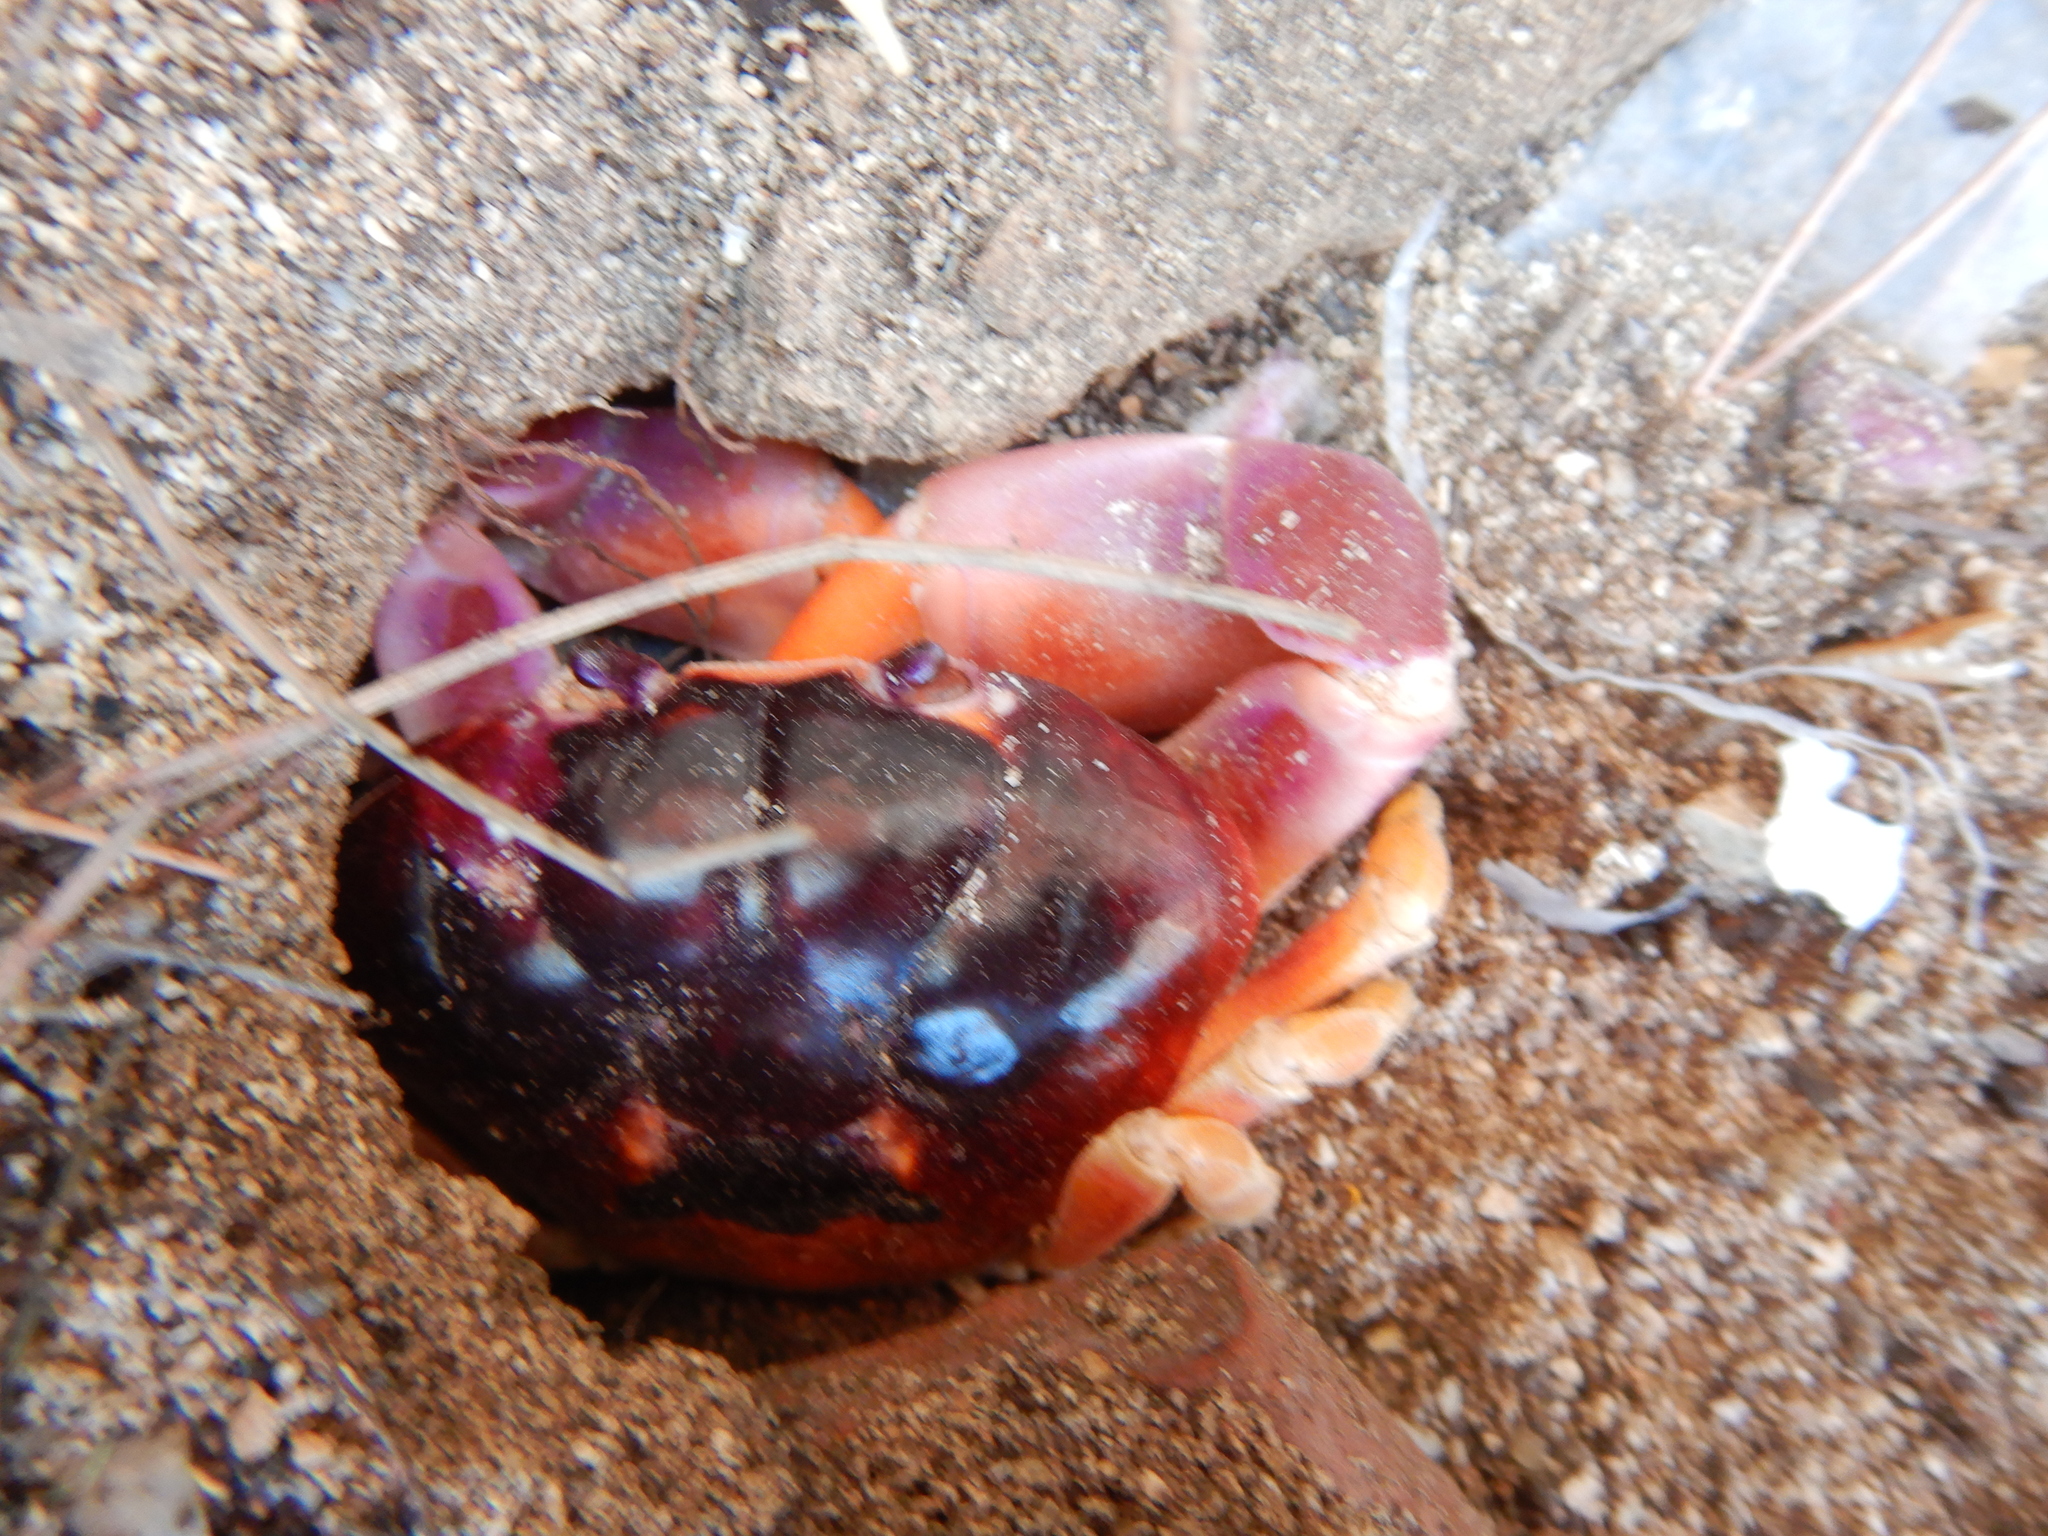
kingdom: Animalia
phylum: Arthropoda
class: Malacostraca
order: Decapoda
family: Gecarcinidae
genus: Gecarcinus
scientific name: Gecarcinus lateralis
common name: Bermuda land crab
